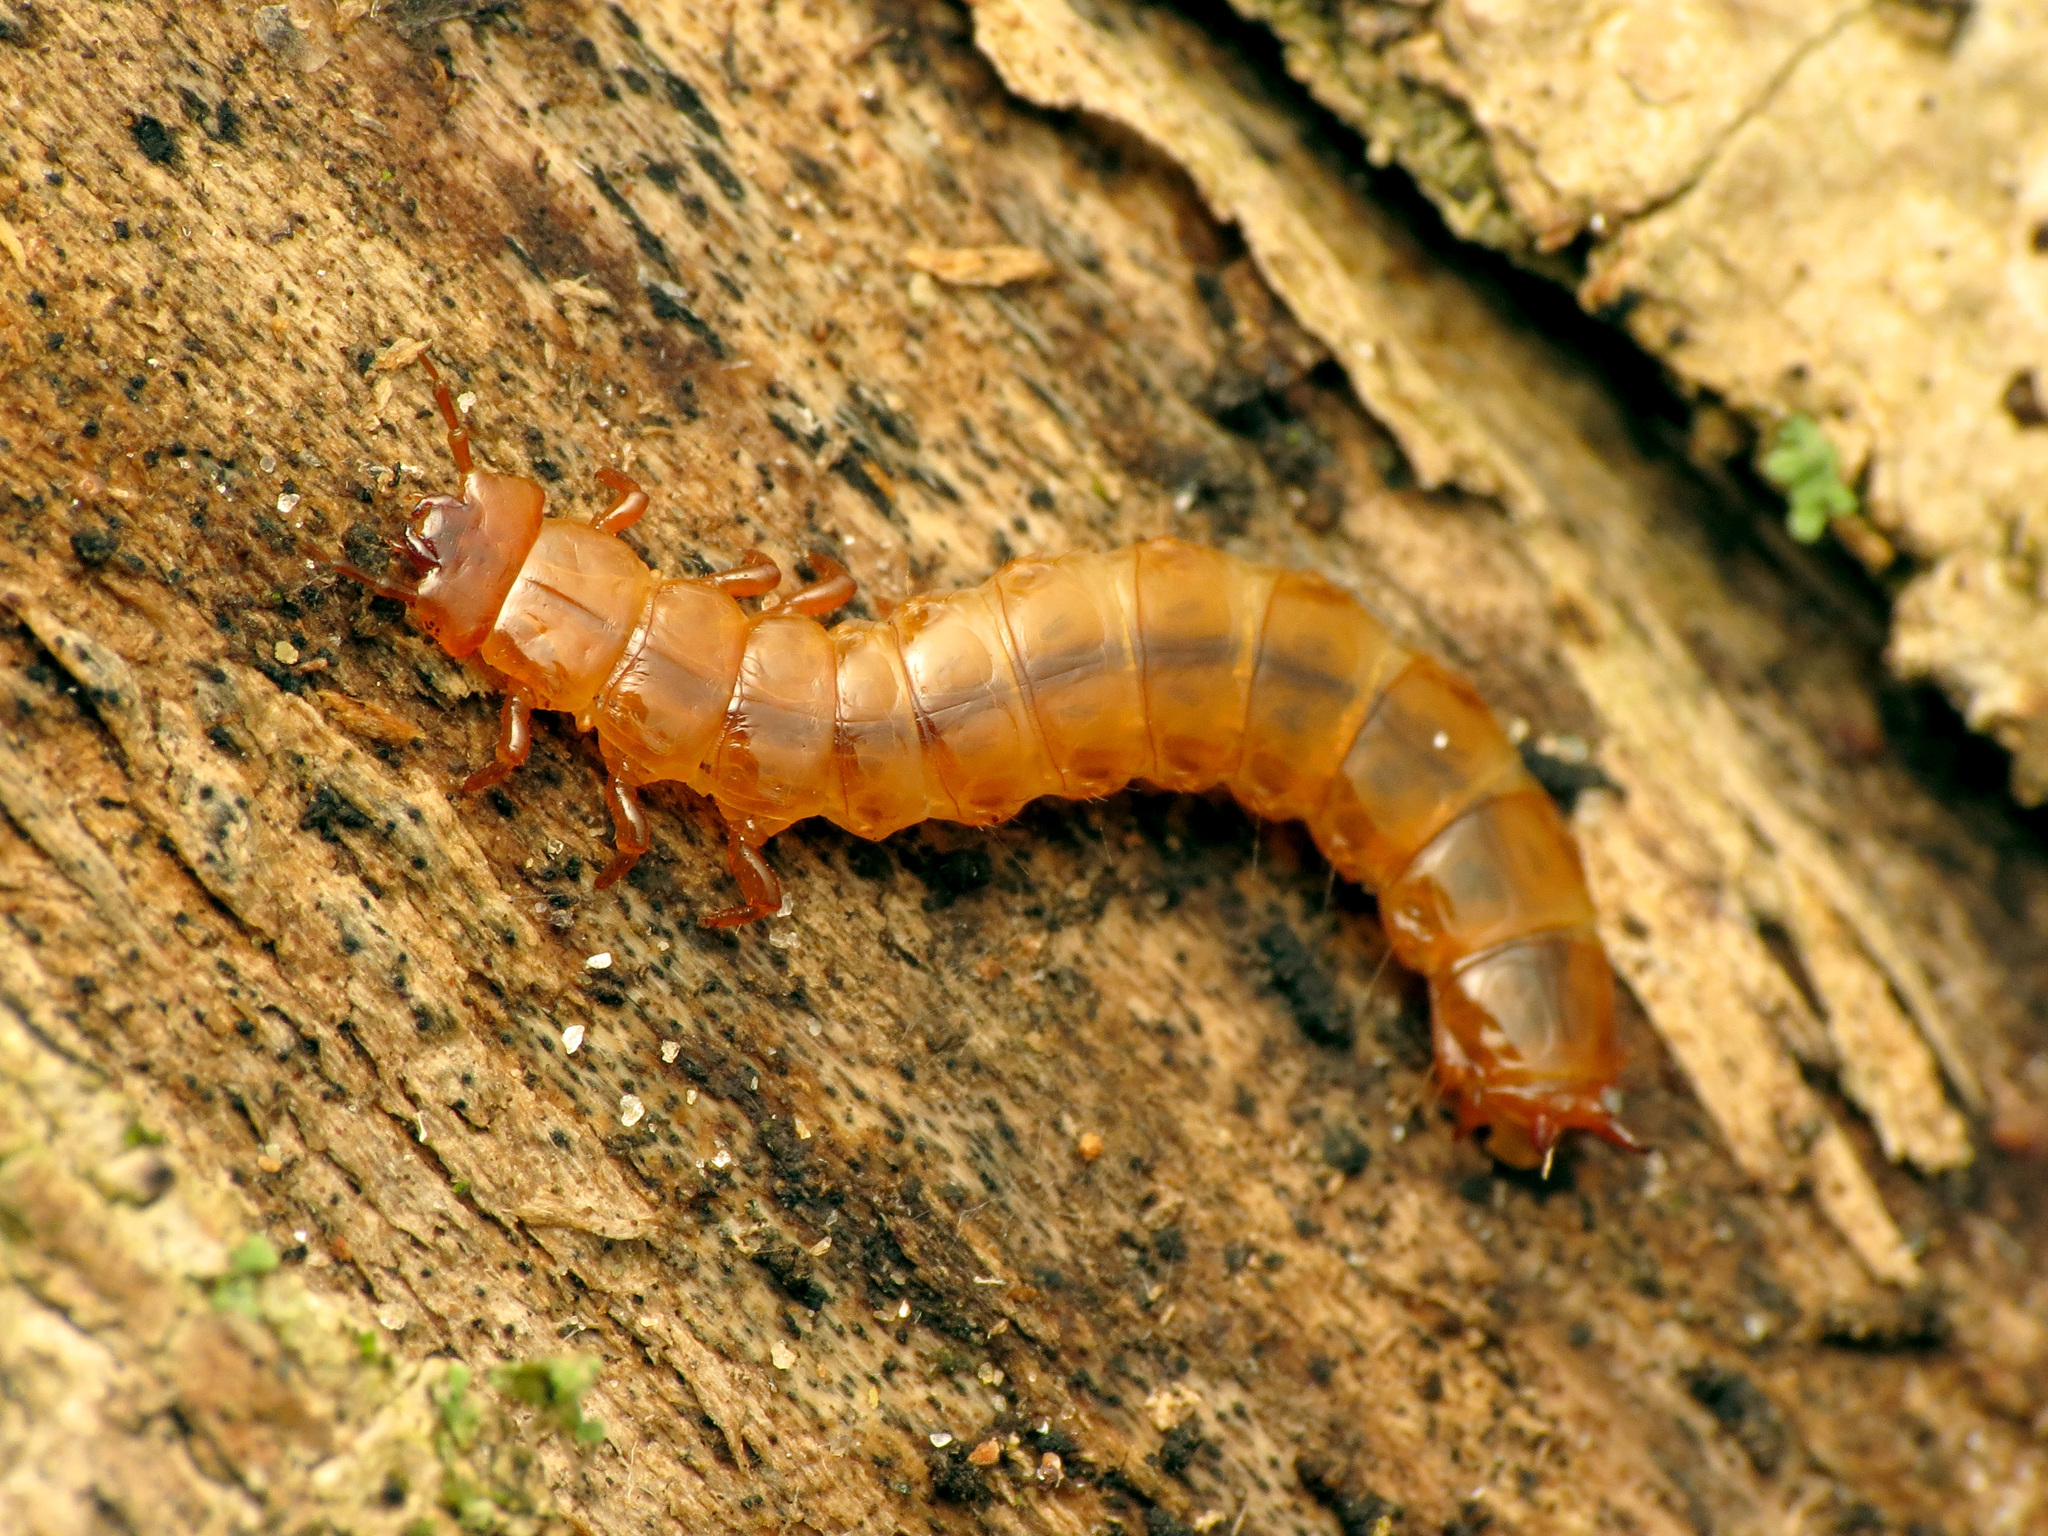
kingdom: Animalia
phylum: Arthropoda
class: Insecta
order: Coleoptera
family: Cucujidae
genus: Cucujus
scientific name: Cucujus clavipes
